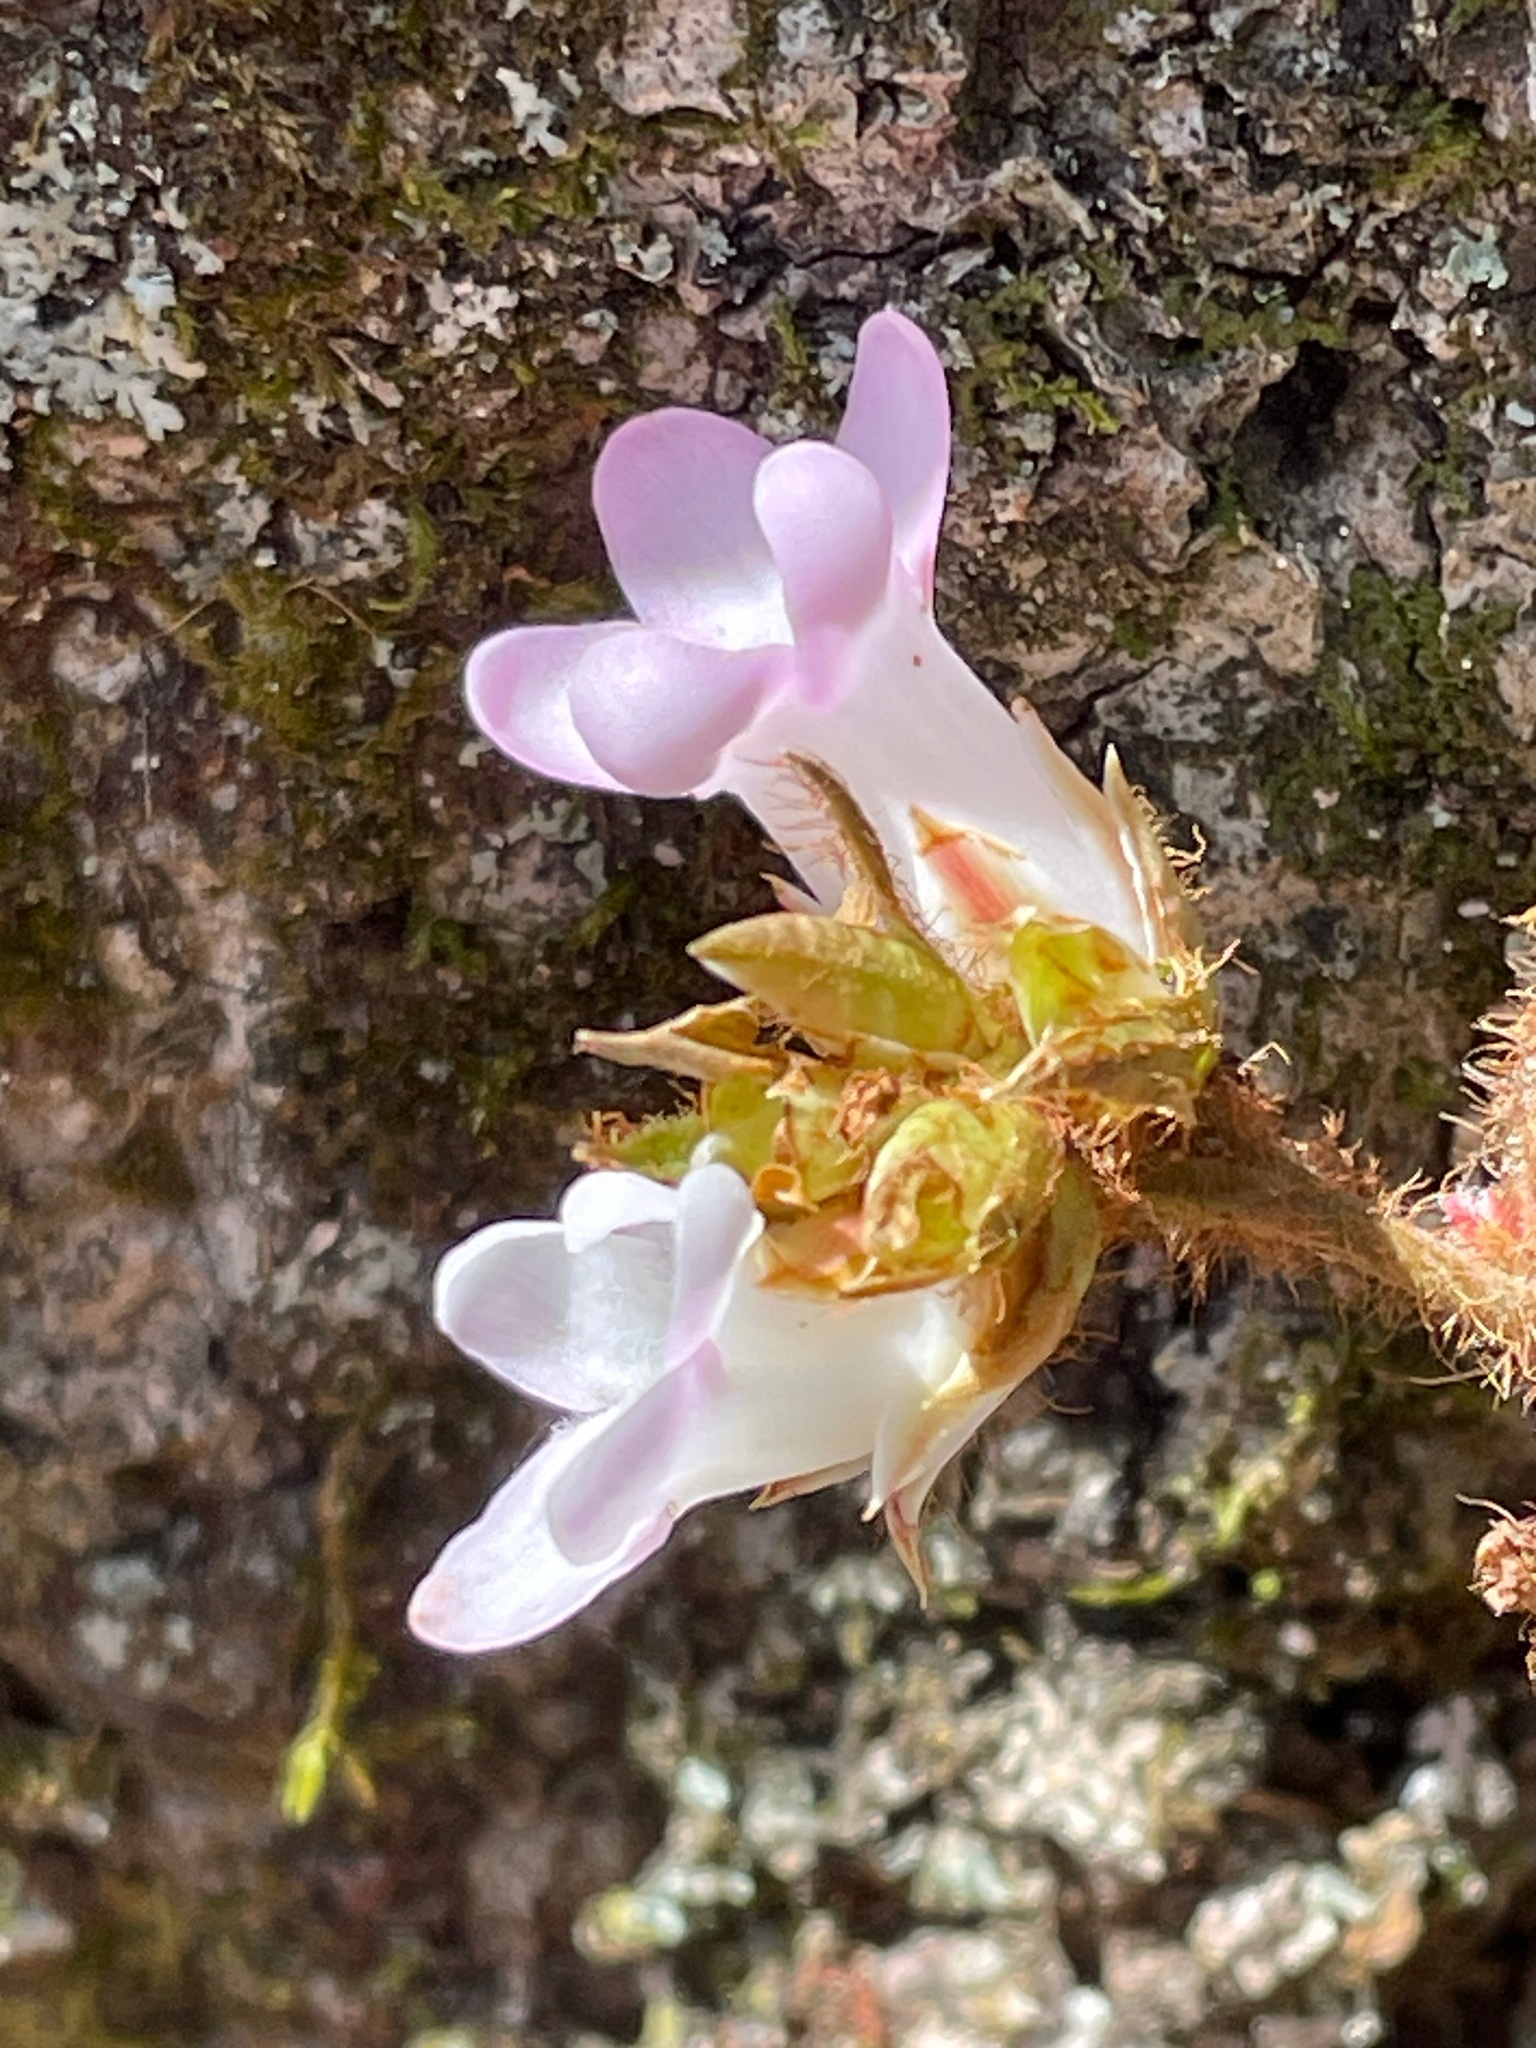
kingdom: Plantae
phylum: Tracheophyta
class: Magnoliopsida
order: Ericales
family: Ericaceae
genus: Epigaea
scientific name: Epigaea repens
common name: Gravelroot
